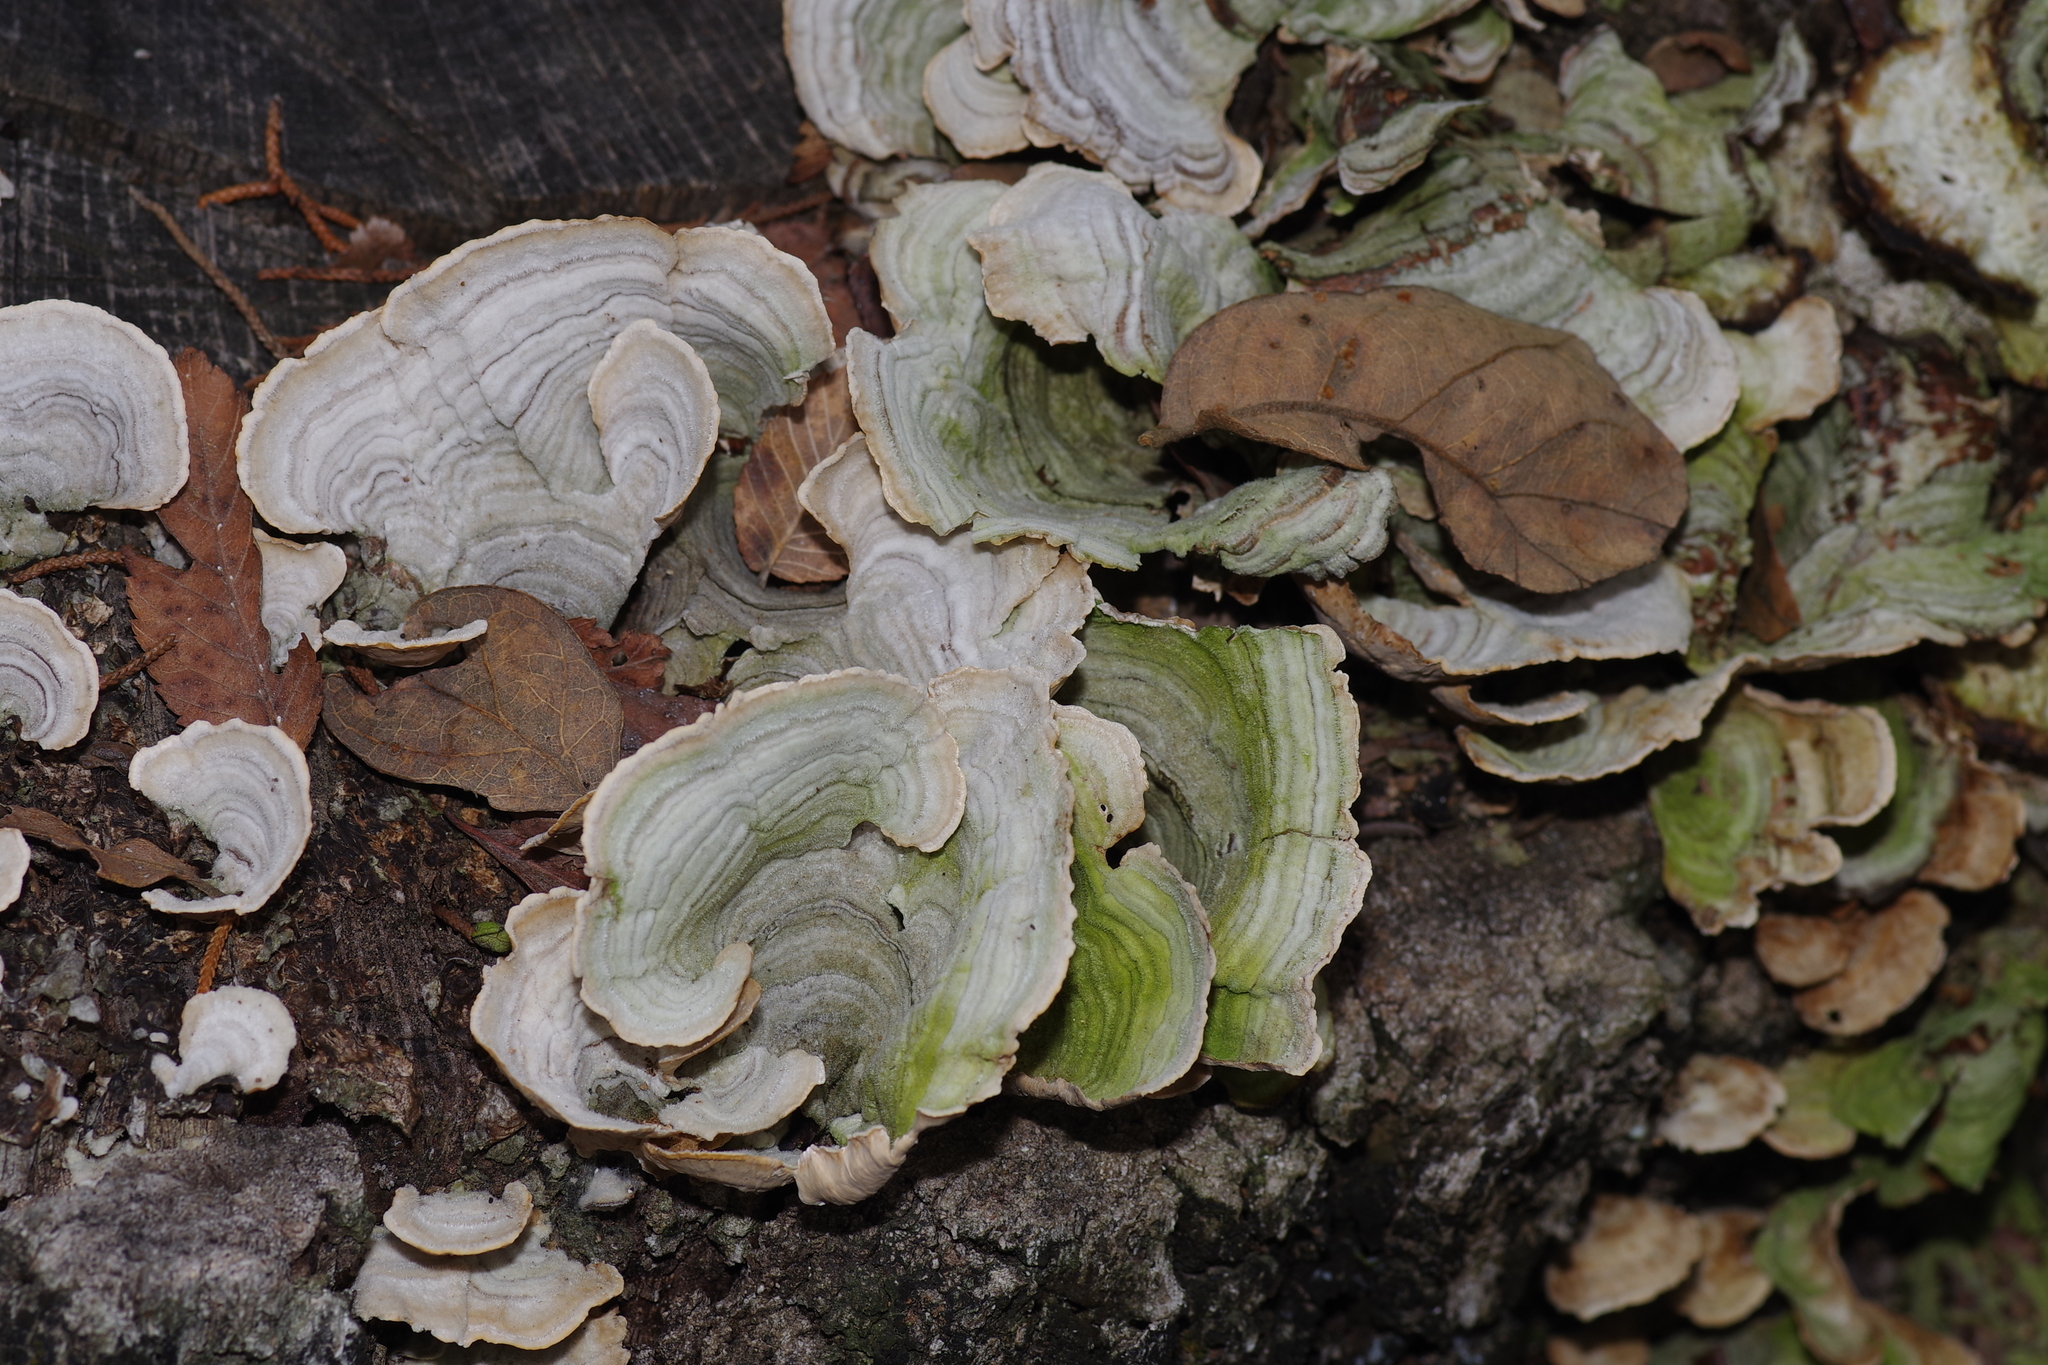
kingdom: Fungi
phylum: Basidiomycota
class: Agaricomycetes
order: Russulales
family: Stereaceae
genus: Stereum
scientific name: Stereum ostrea
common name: False turkeytail
